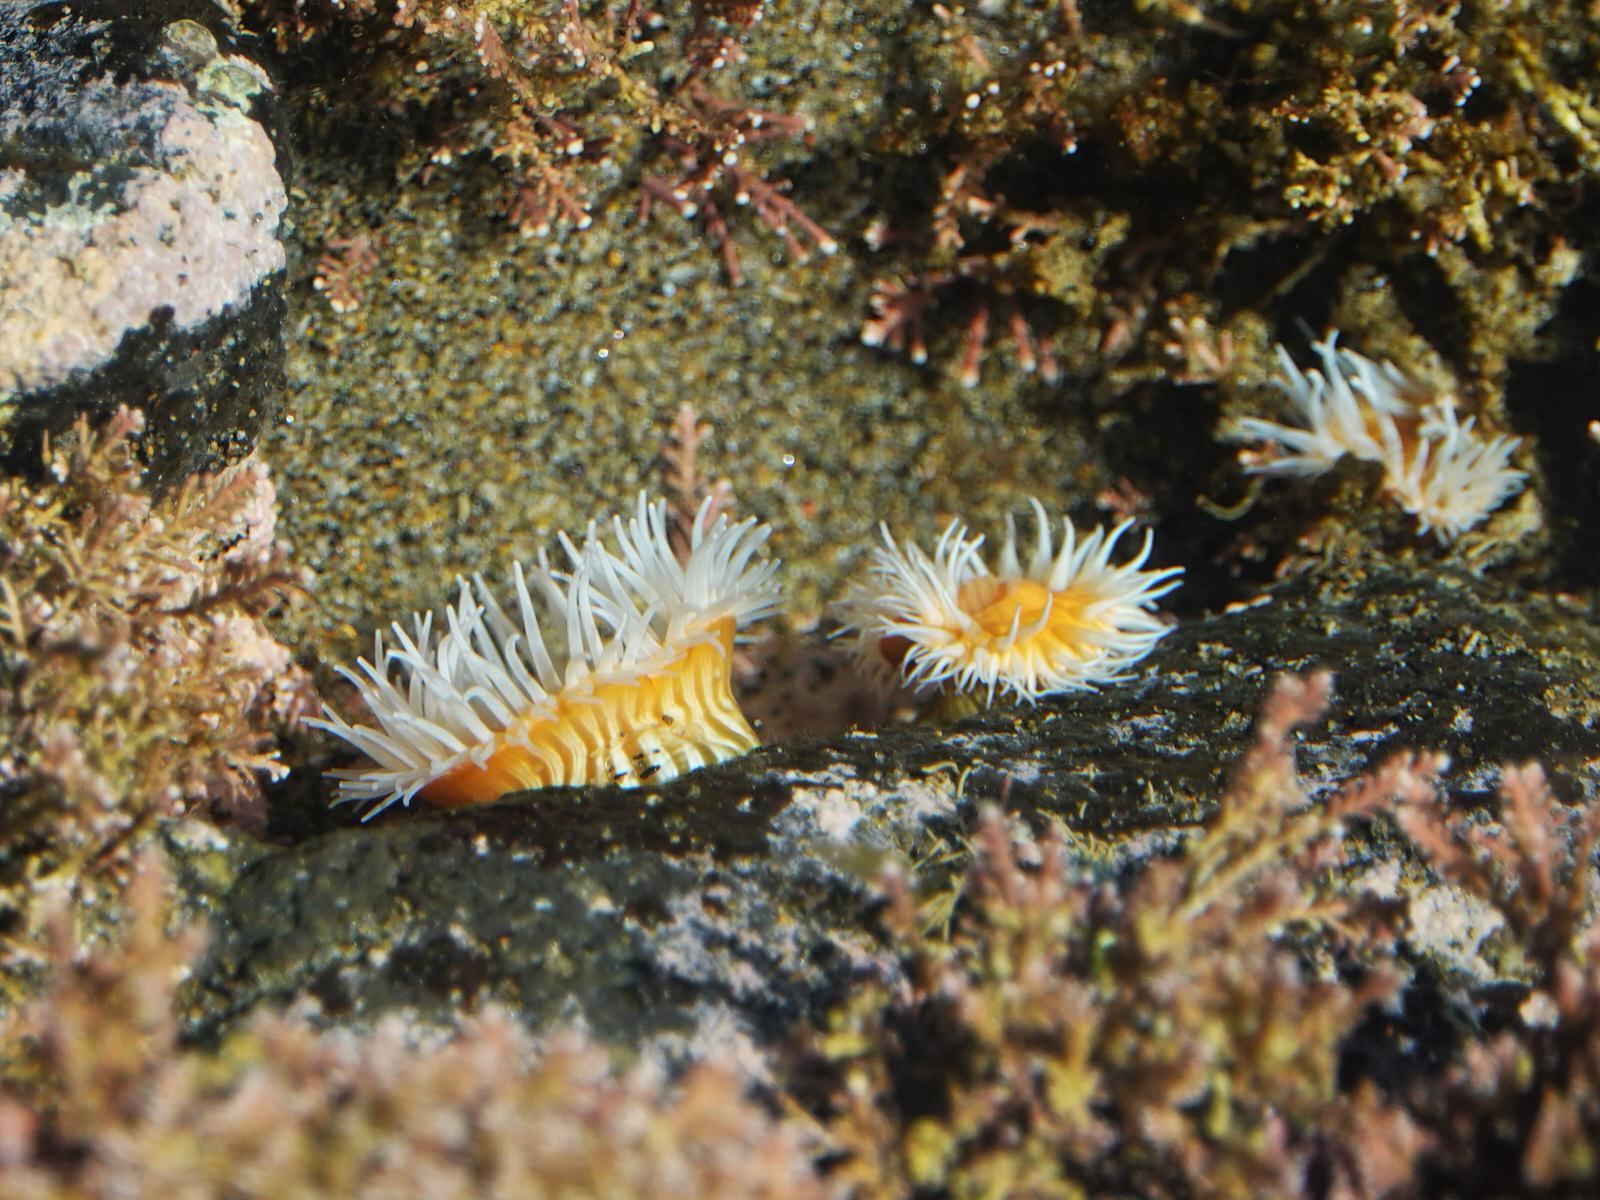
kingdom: Animalia
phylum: Cnidaria
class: Anthozoa
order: Actiniaria
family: Sagartiidae
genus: Anthothoe
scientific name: Anthothoe albocincta
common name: Orange striped anemone
